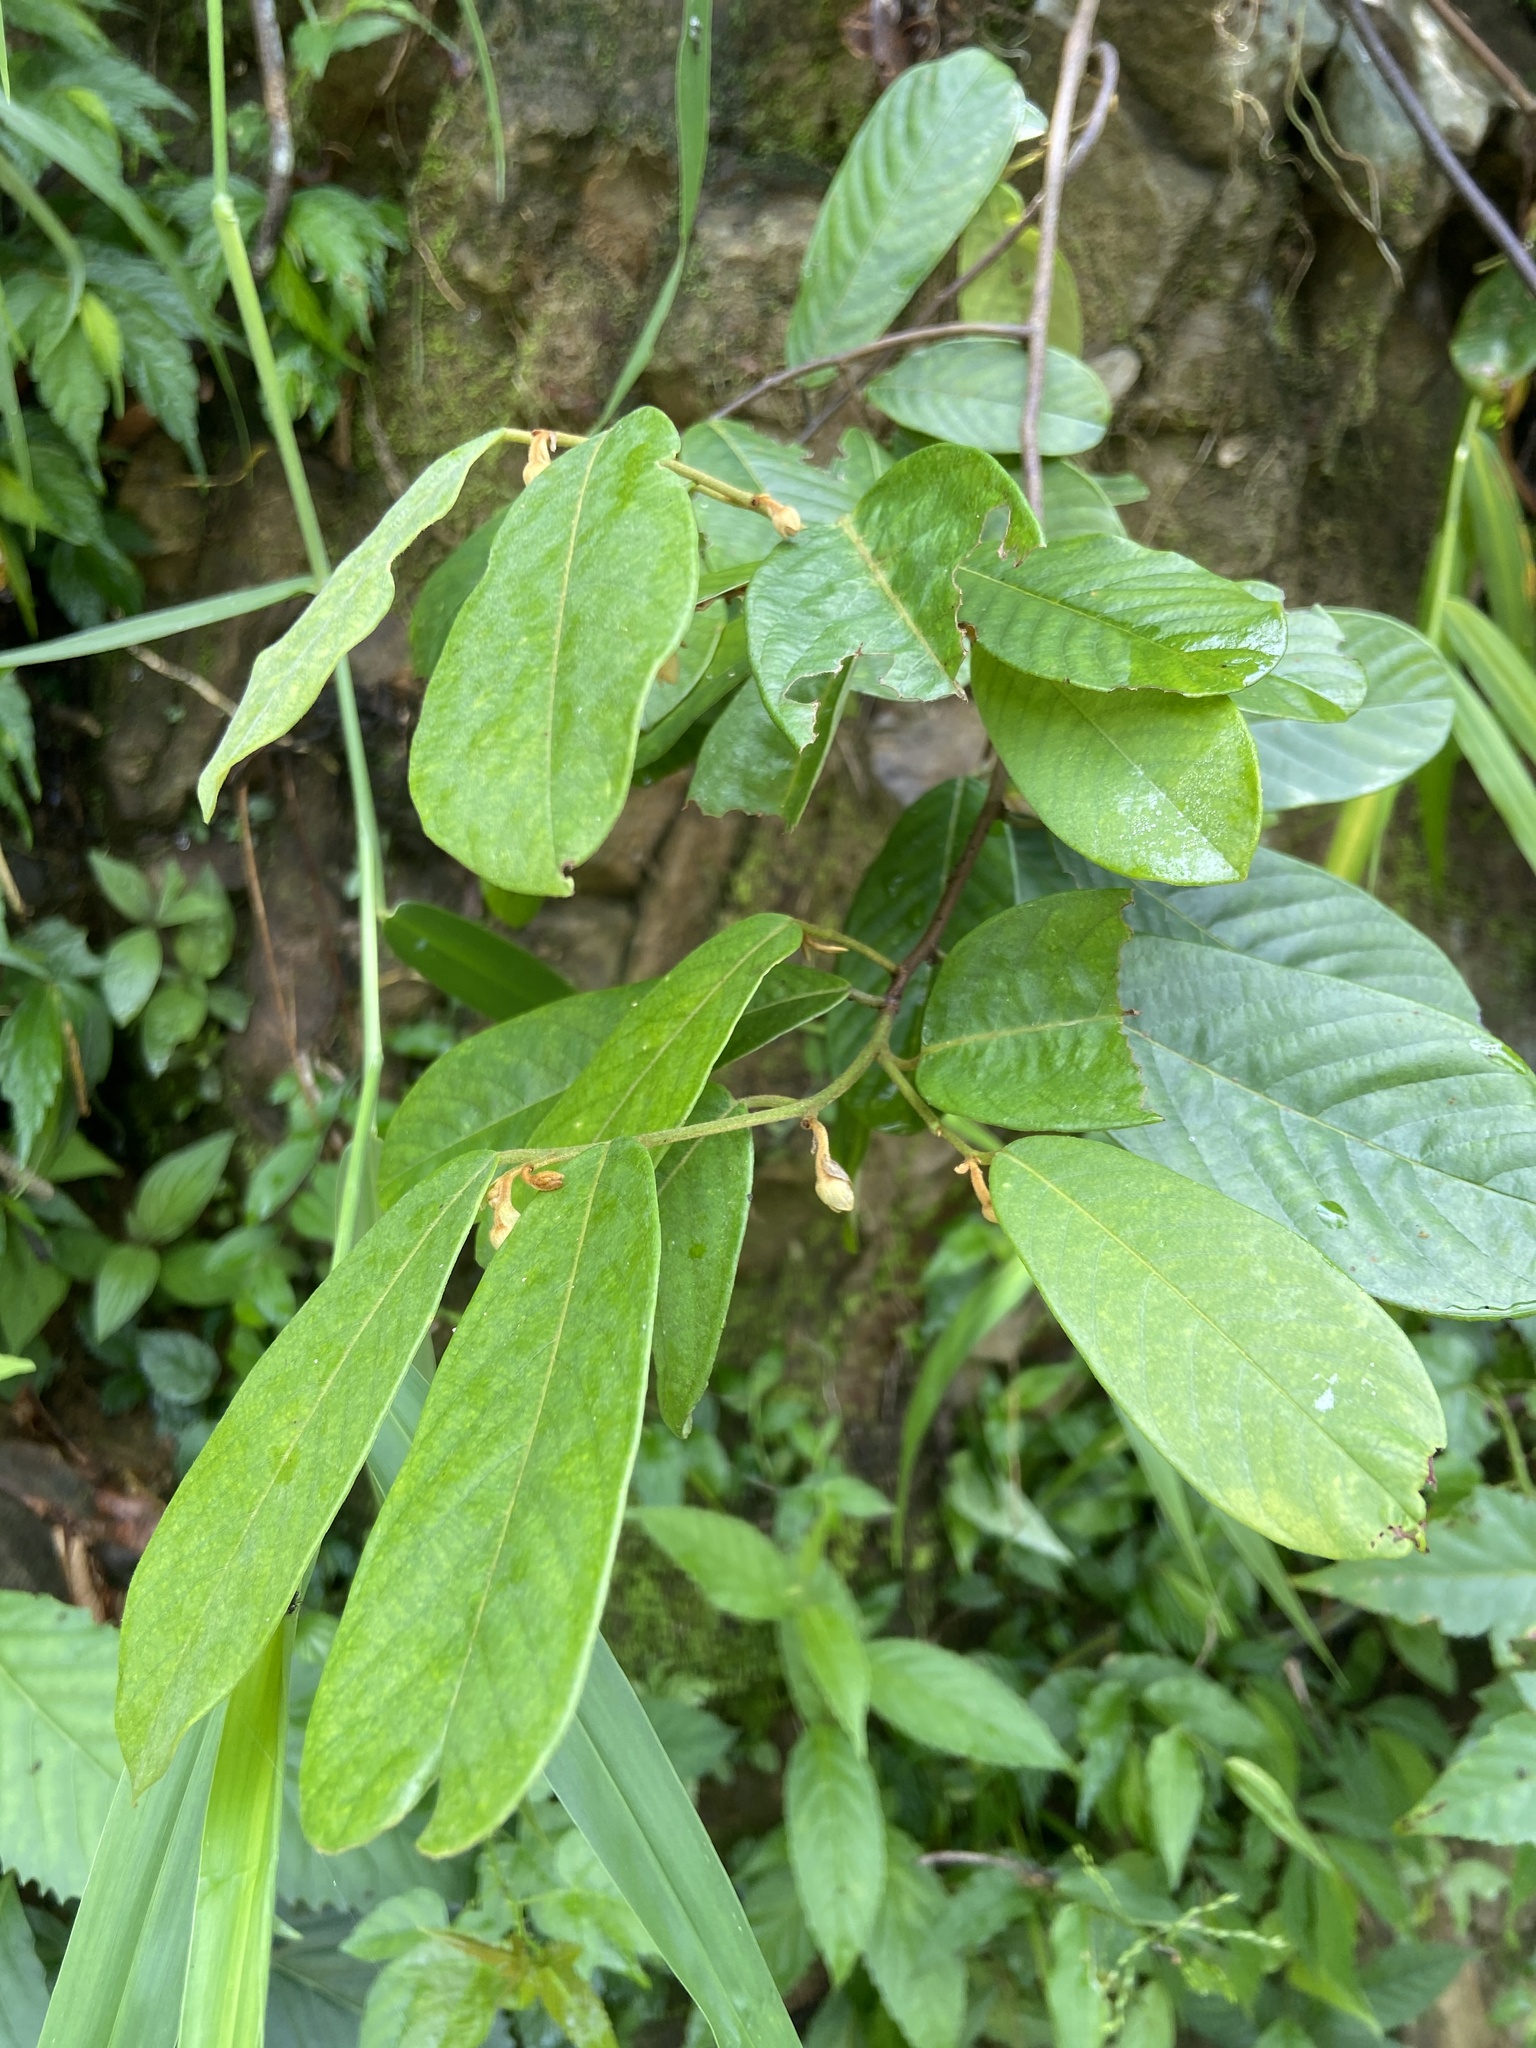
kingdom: Plantae
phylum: Tracheophyta
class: Magnoliopsida
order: Magnoliales
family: Annonaceae
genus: Fissistigma
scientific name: Fissistigma oldhamii
